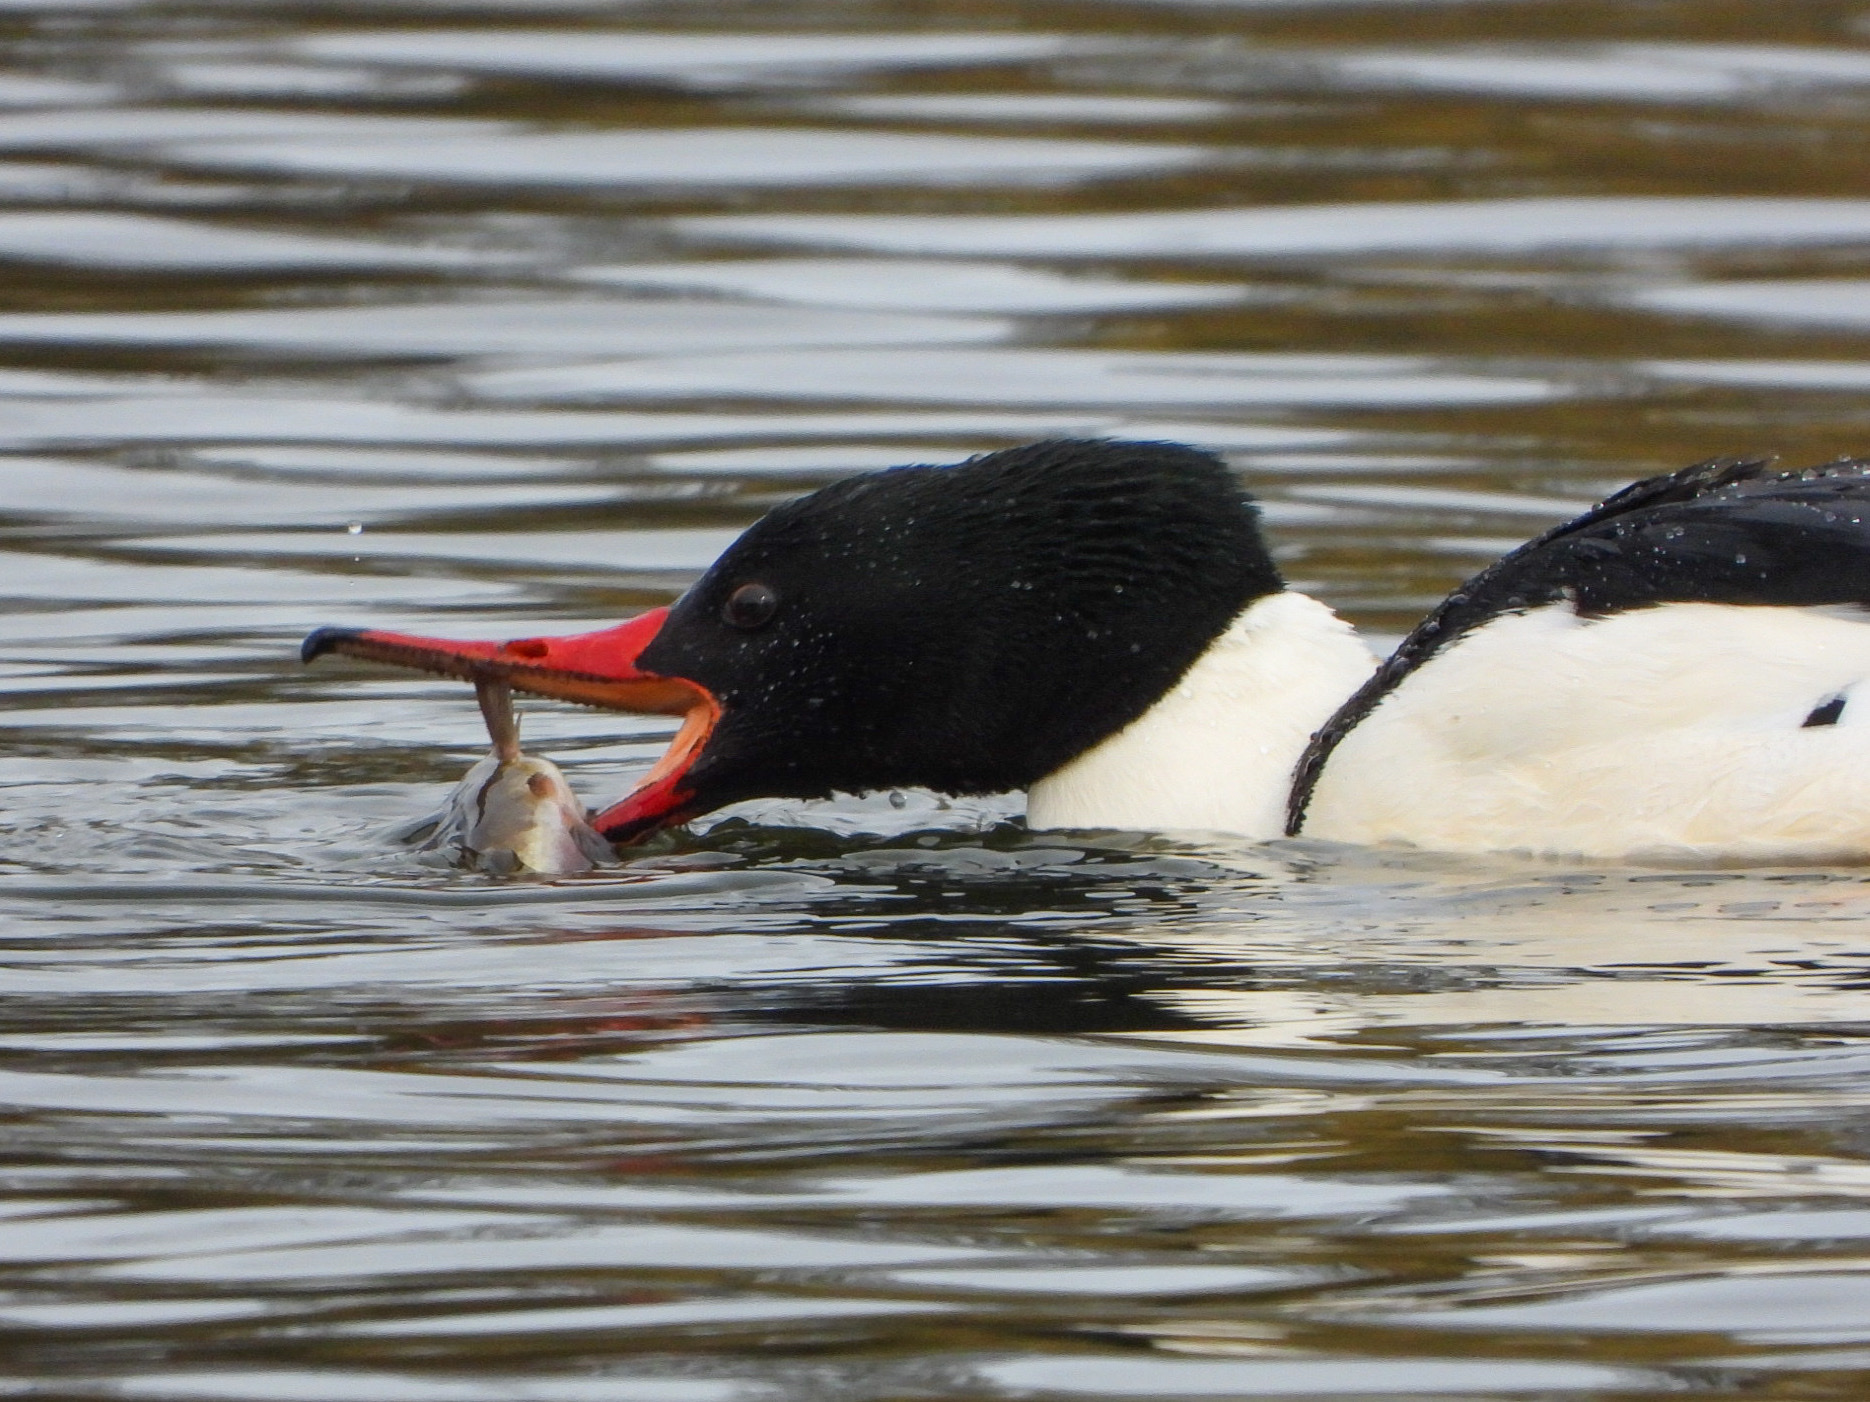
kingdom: Animalia
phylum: Chordata
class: Aves
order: Anseriformes
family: Anatidae
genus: Mergus
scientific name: Mergus merganser
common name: Common merganser
